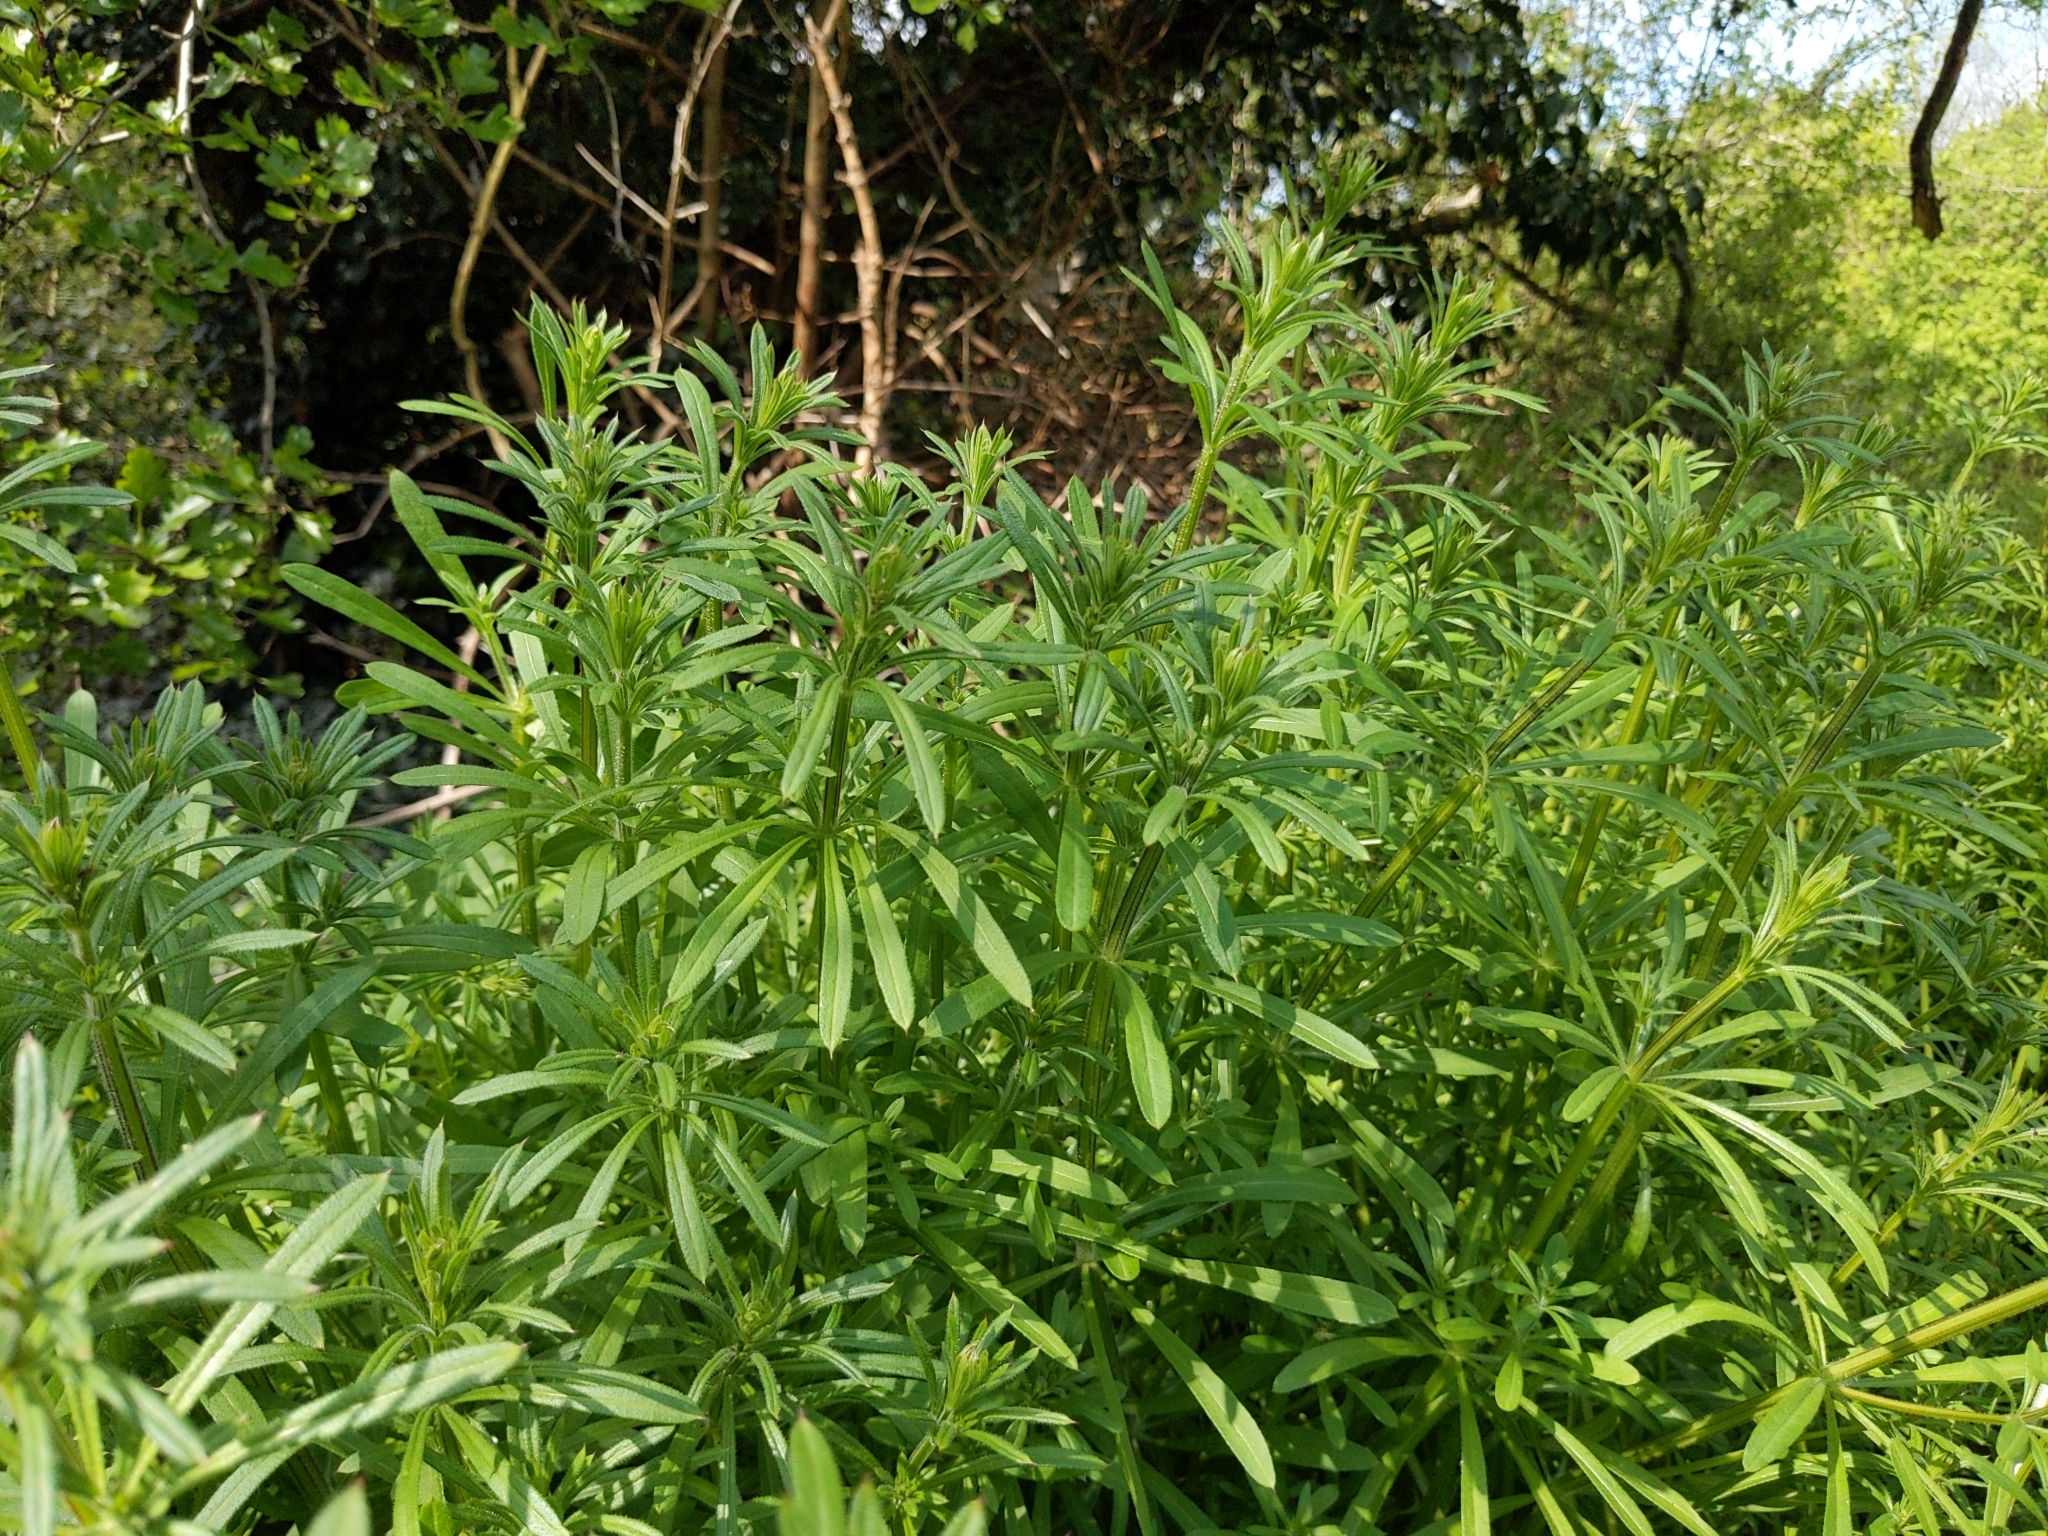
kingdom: Plantae
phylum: Tracheophyta
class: Magnoliopsida
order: Gentianales
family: Rubiaceae
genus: Galium
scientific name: Galium aparine
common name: Cleavers
